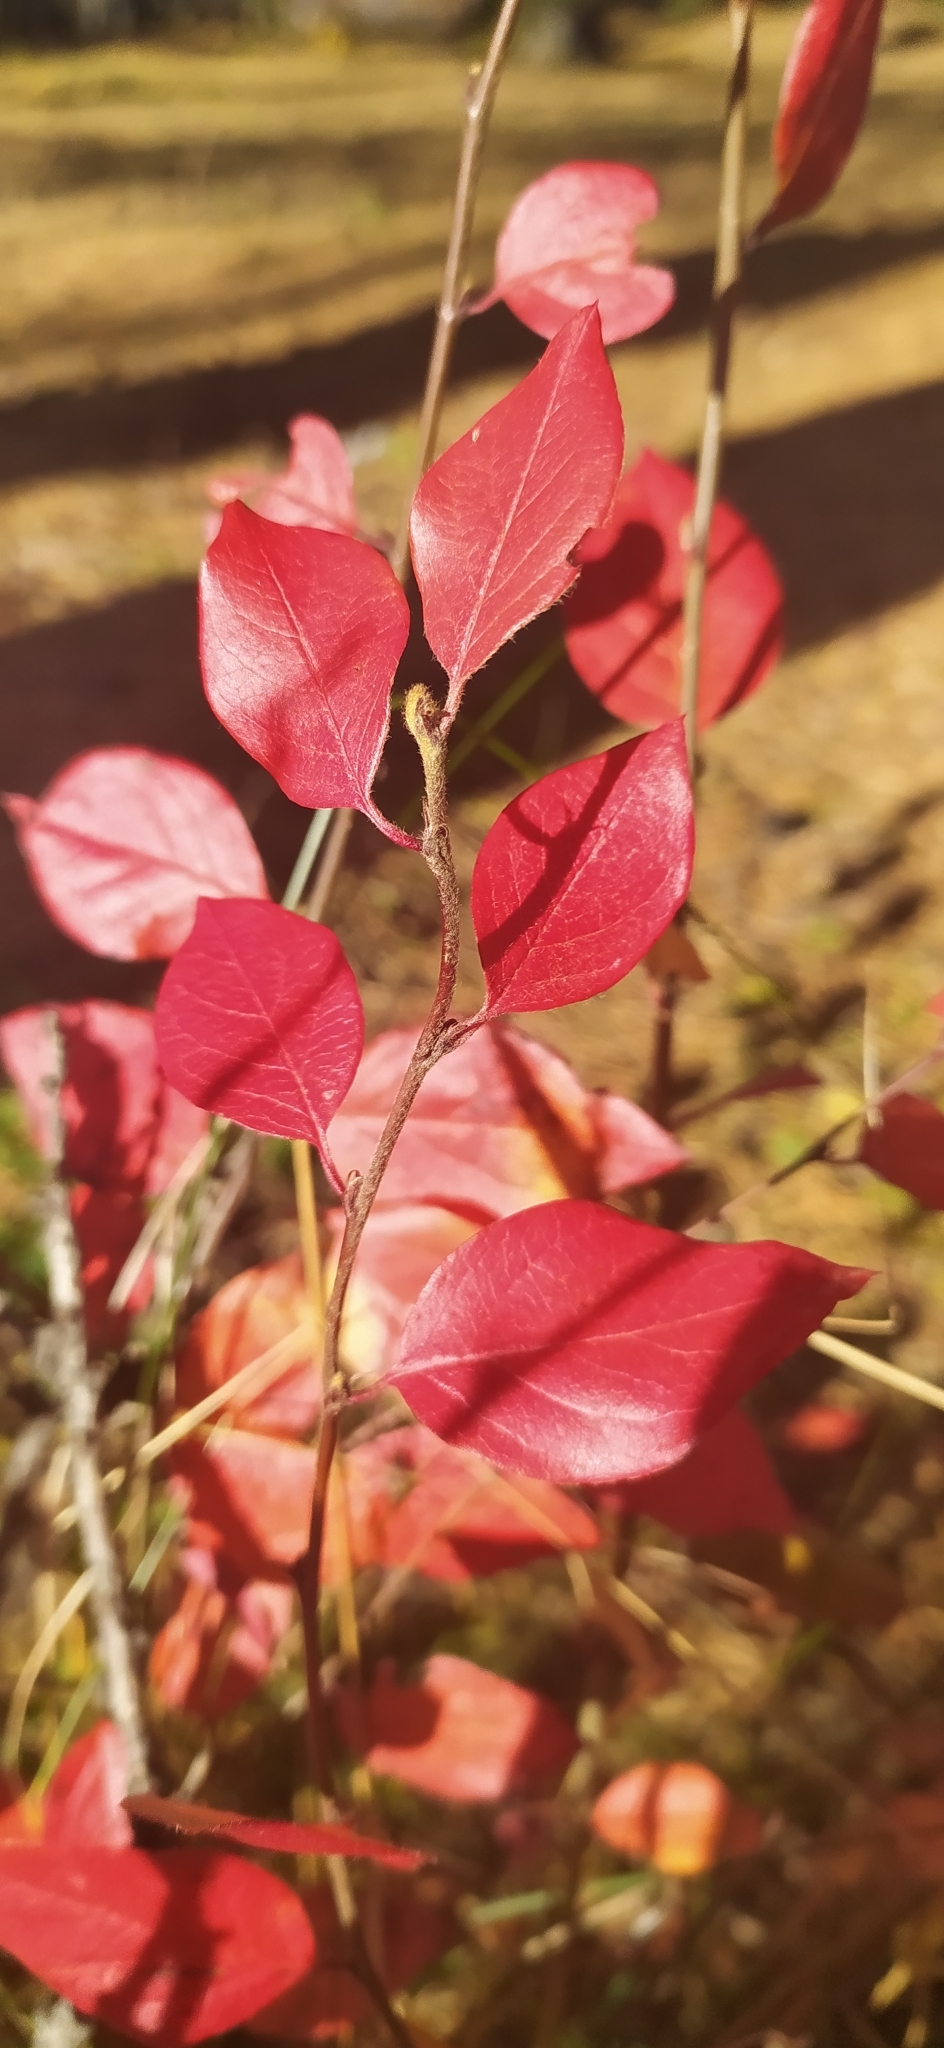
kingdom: Plantae
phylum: Tracheophyta
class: Magnoliopsida
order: Rosales
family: Rosaceae
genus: Cotoneaster
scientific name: Cotoneaster acutifolius
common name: Peking cotoneaster
